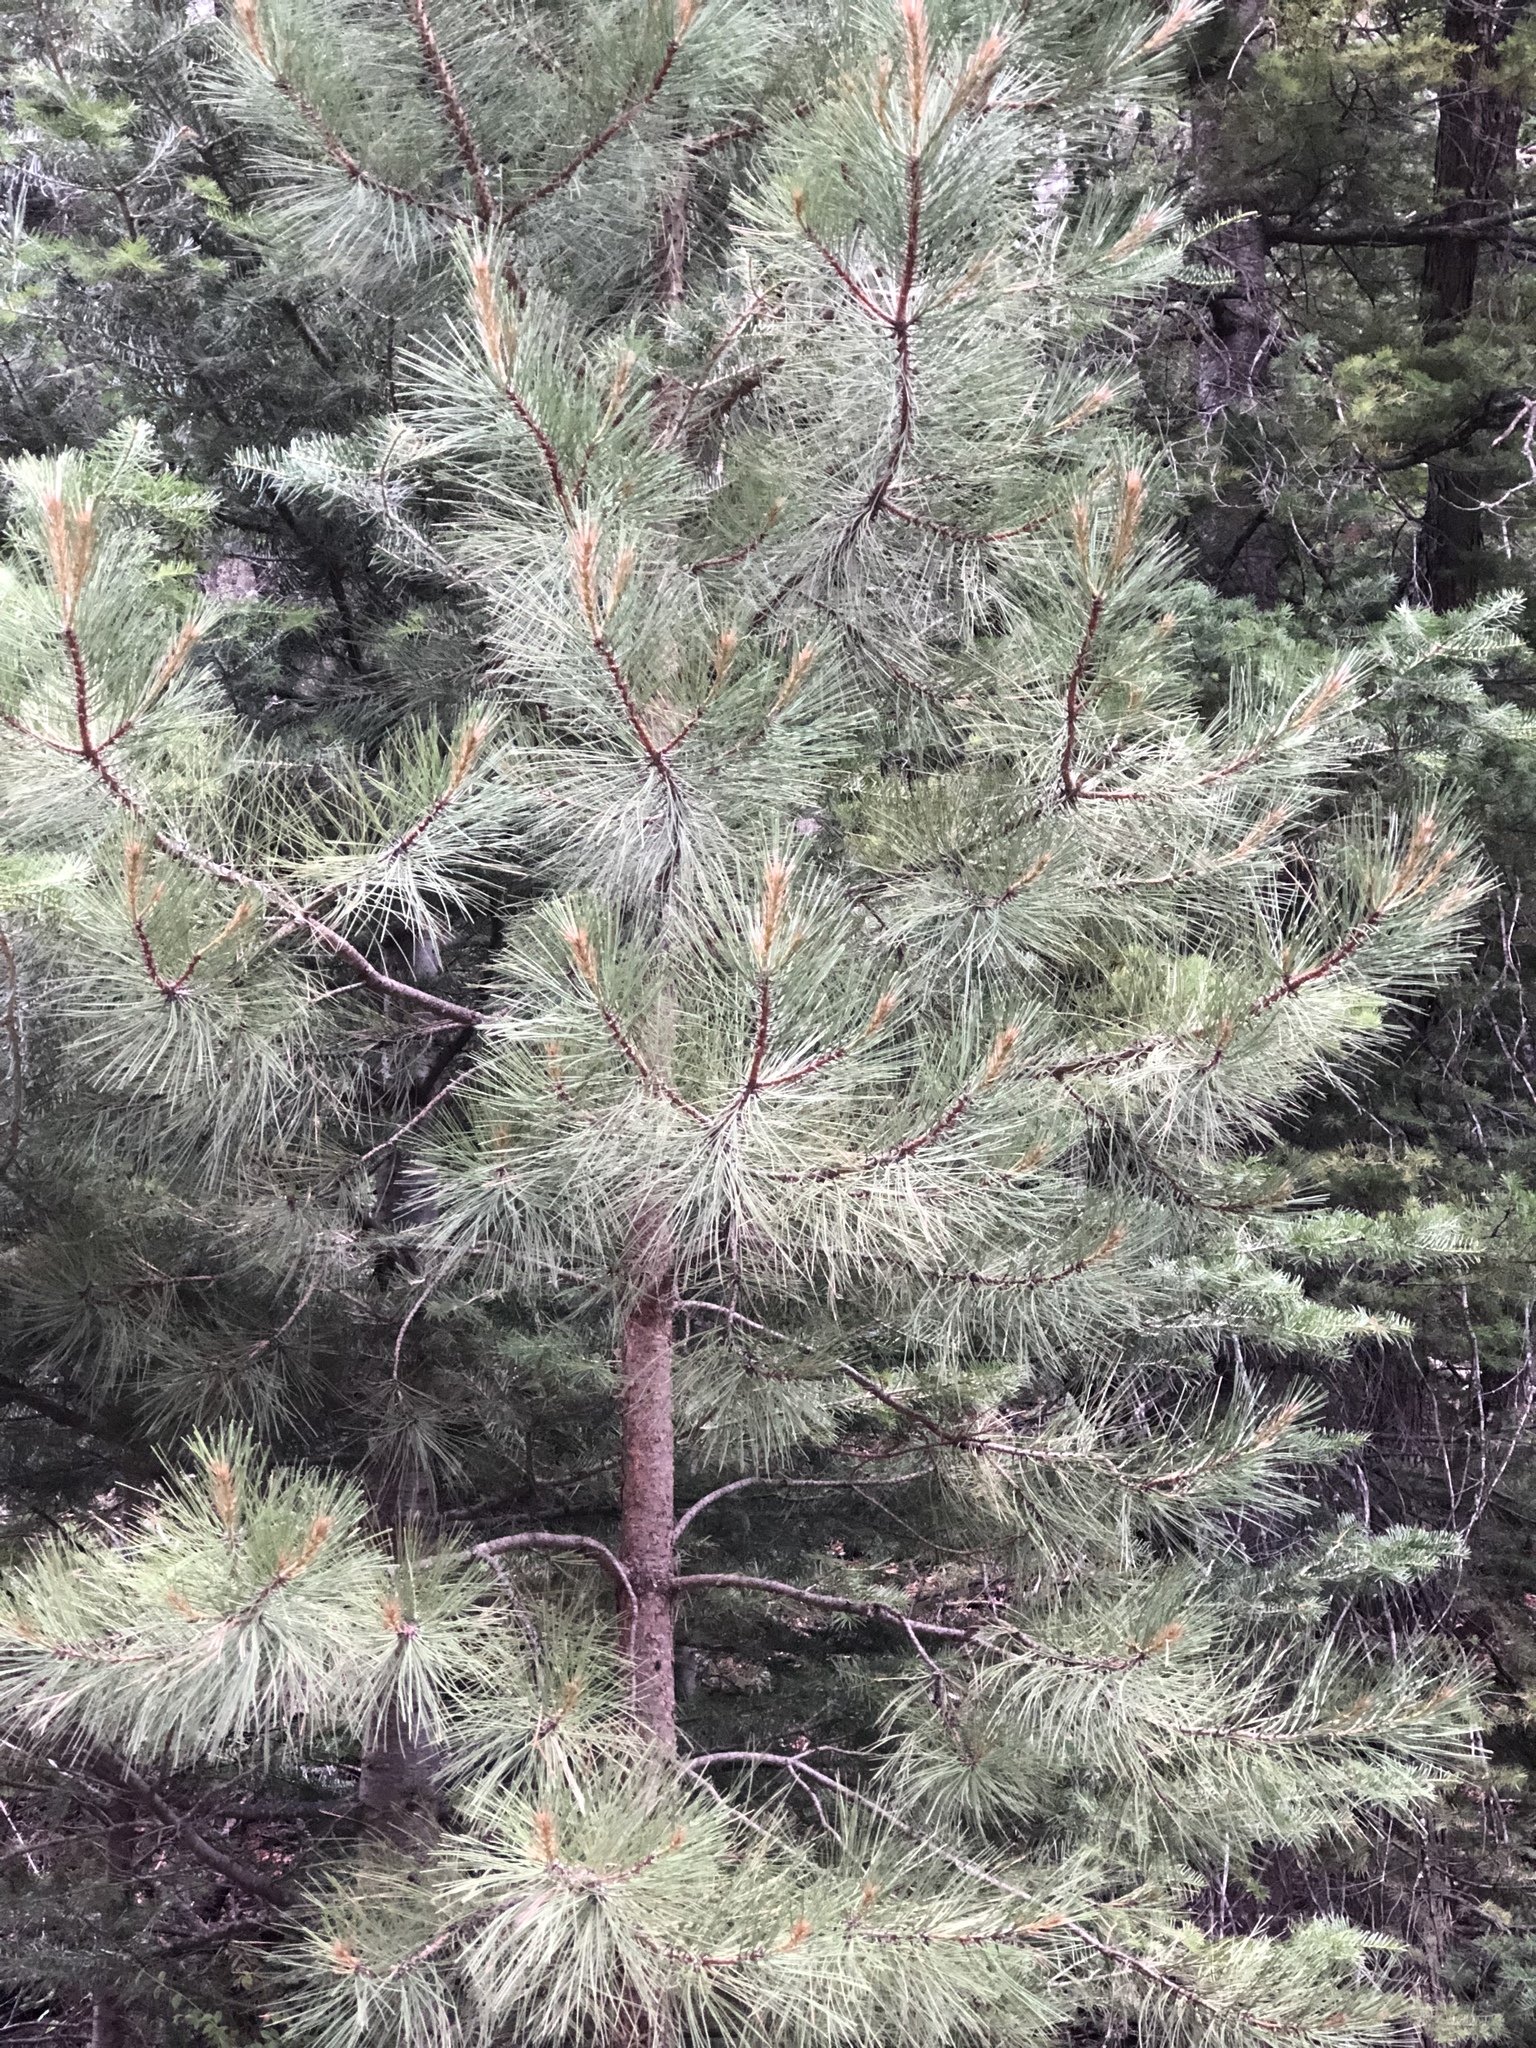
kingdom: Plantae
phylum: Tracheophyta
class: Pinopsida
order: Pinales
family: Pinaceae
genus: Pinus
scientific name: Pinus ponderosa
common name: Western yellow-pine
